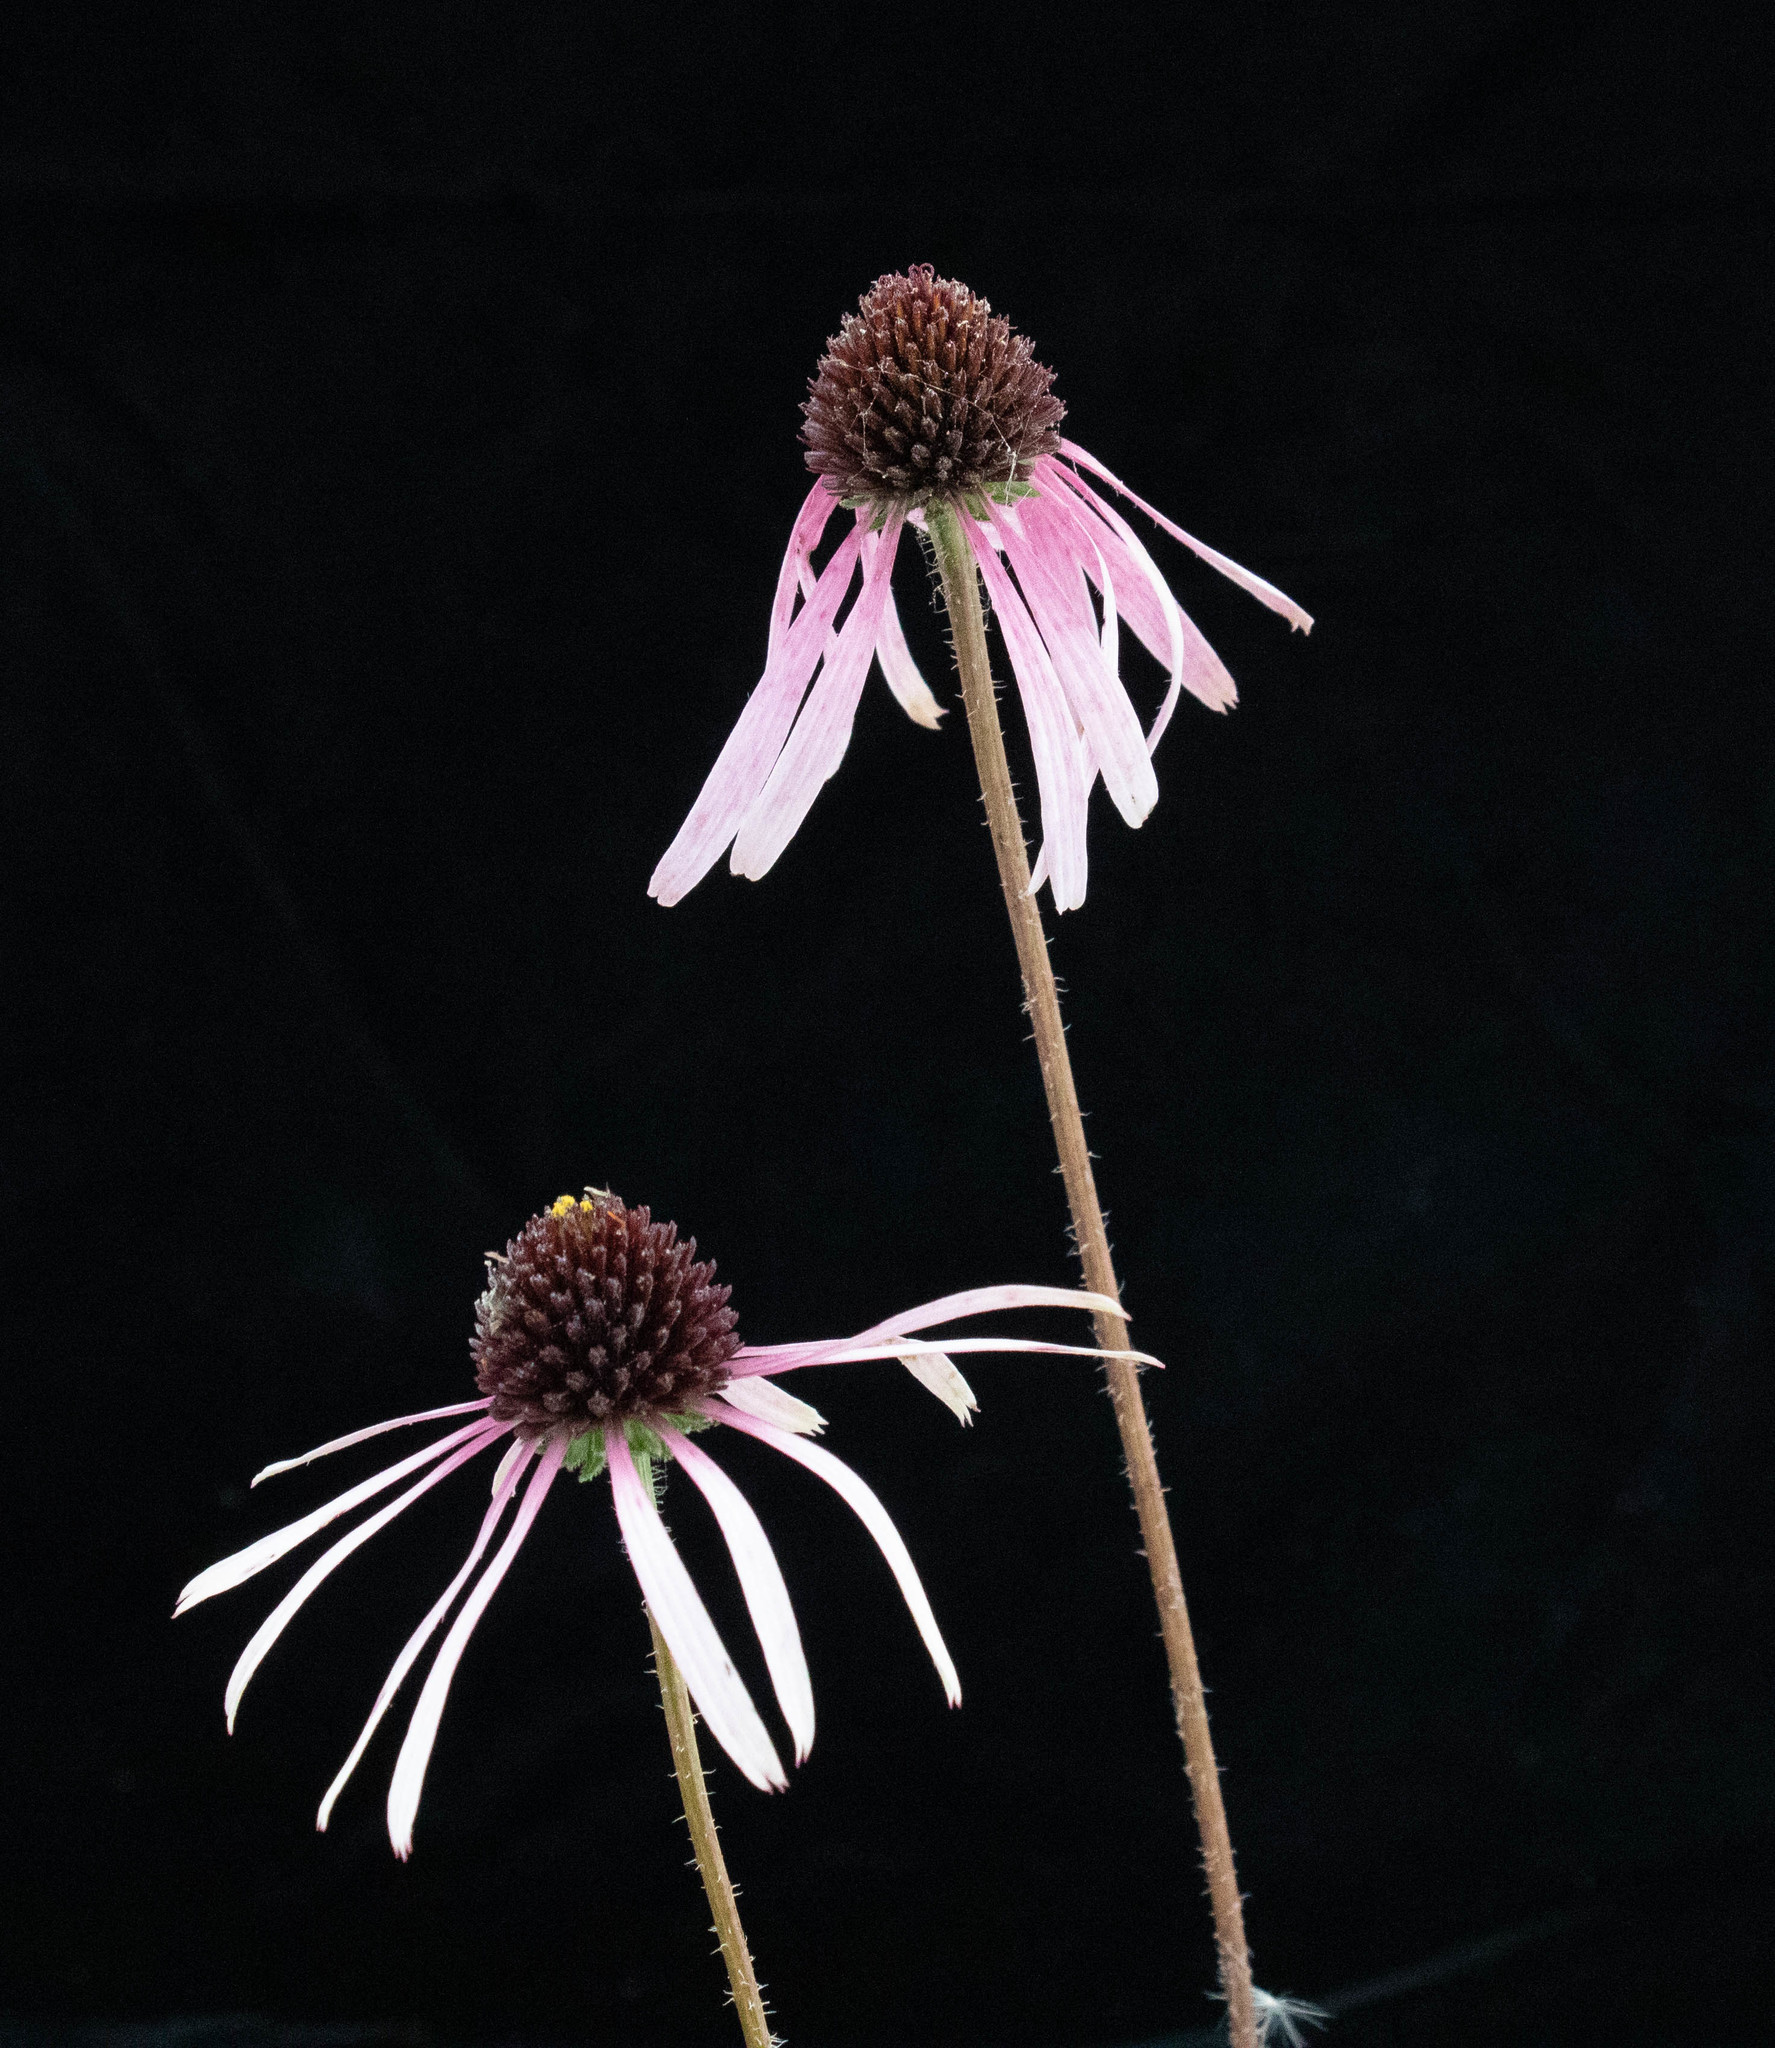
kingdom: Plantae
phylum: Tracheophyta
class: Magnoliopsida
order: Asterales
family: Asteraceae
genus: Echinacea
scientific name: Echinacea sanguinea
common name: Sanguine purple-coneflower
